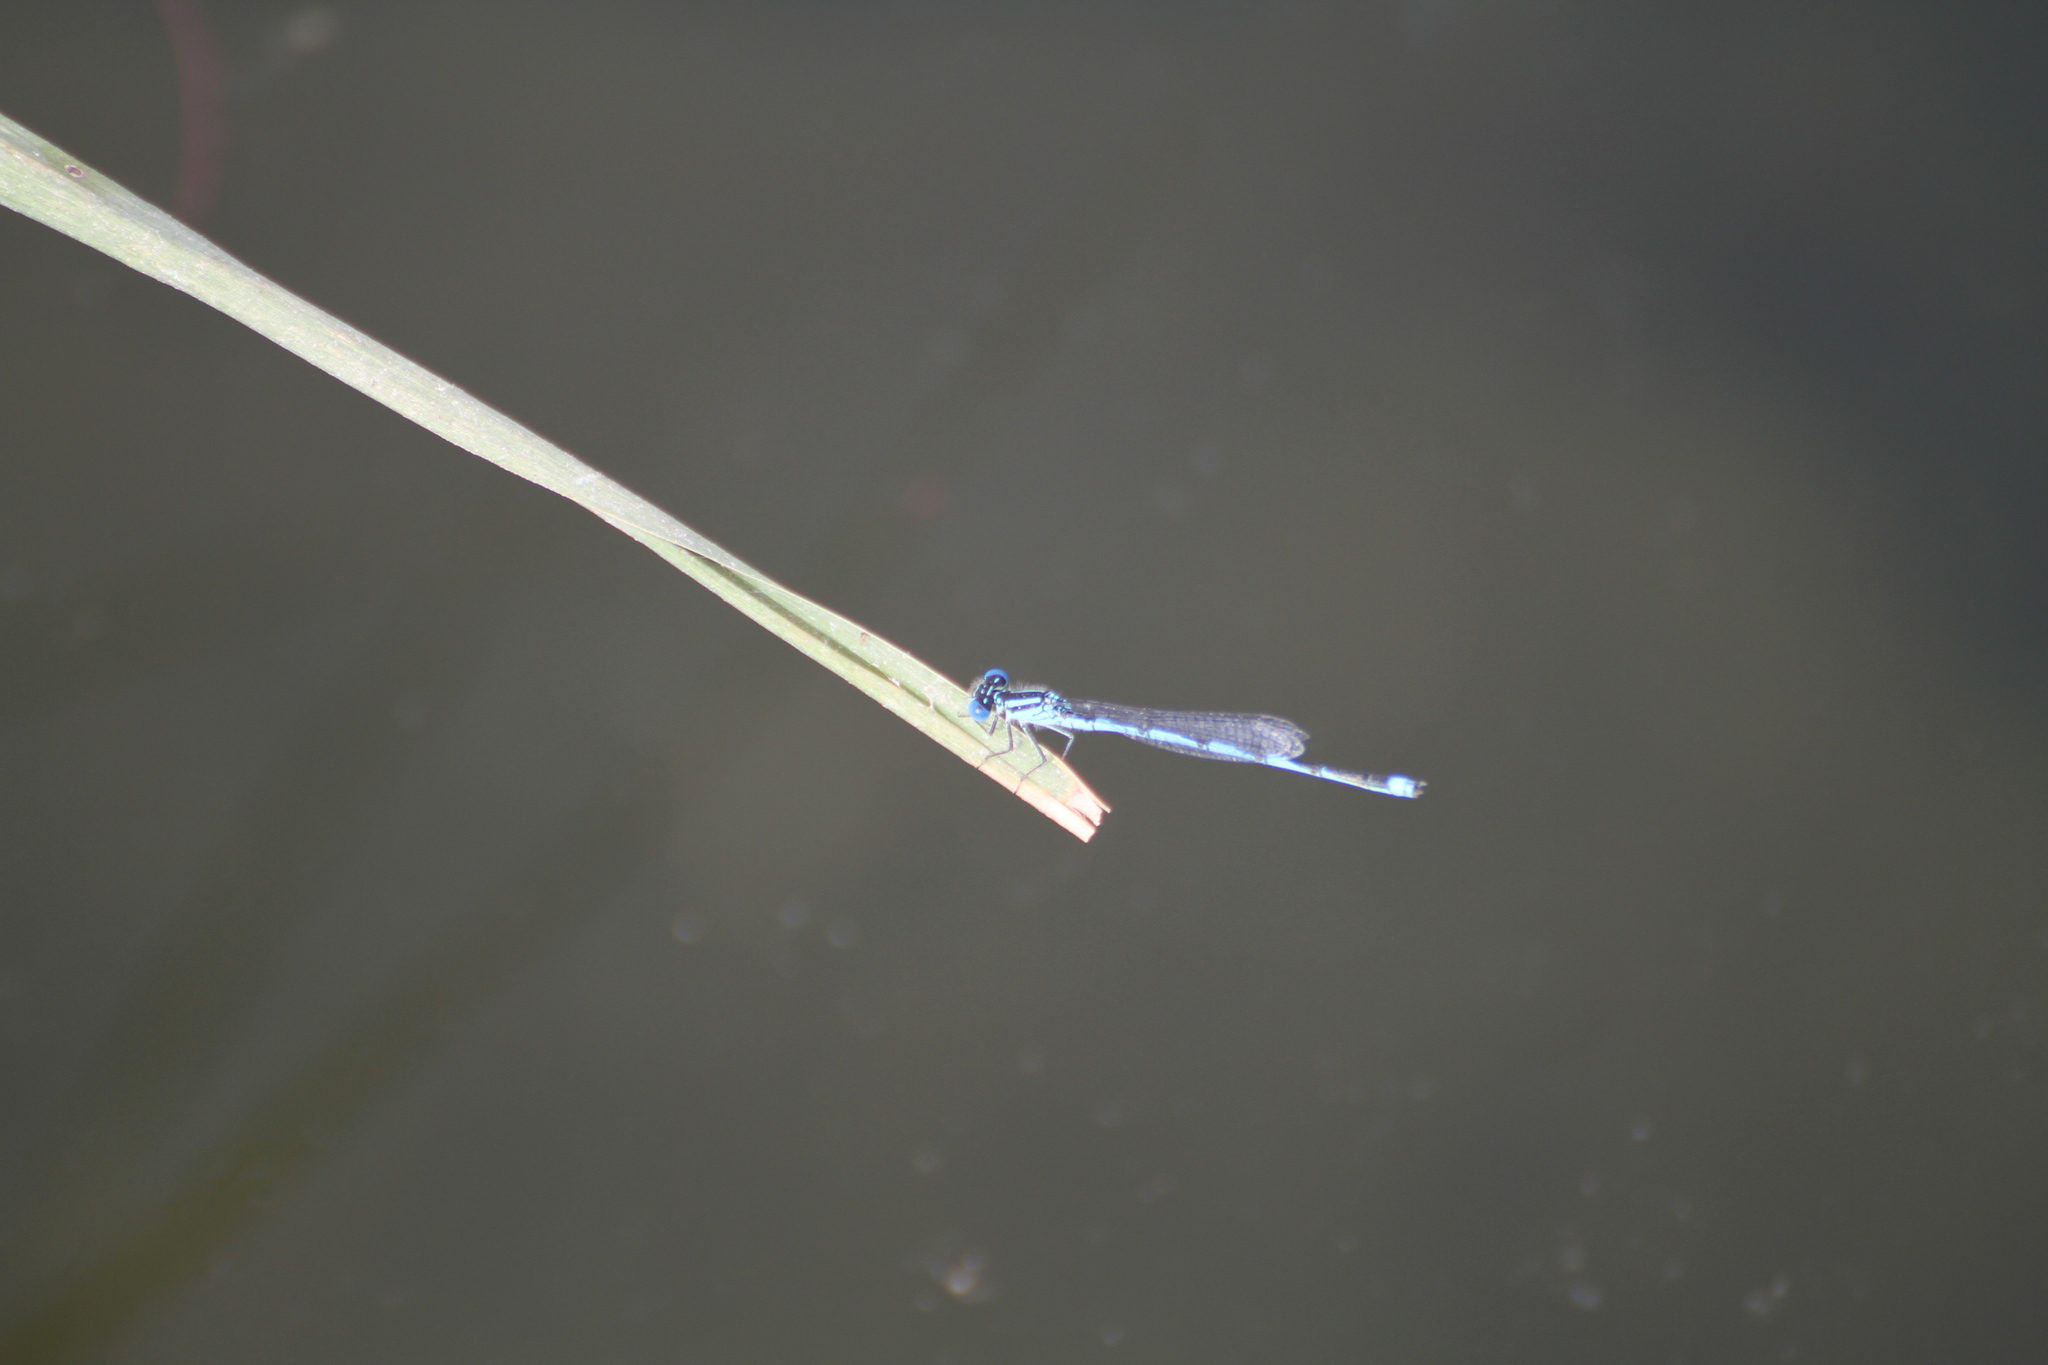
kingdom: Animalia
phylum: Arthropoda
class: Insecta
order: Odonata
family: Coenagrionidae
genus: Erythromma
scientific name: Erythromma lindenii
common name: Blue-eye
